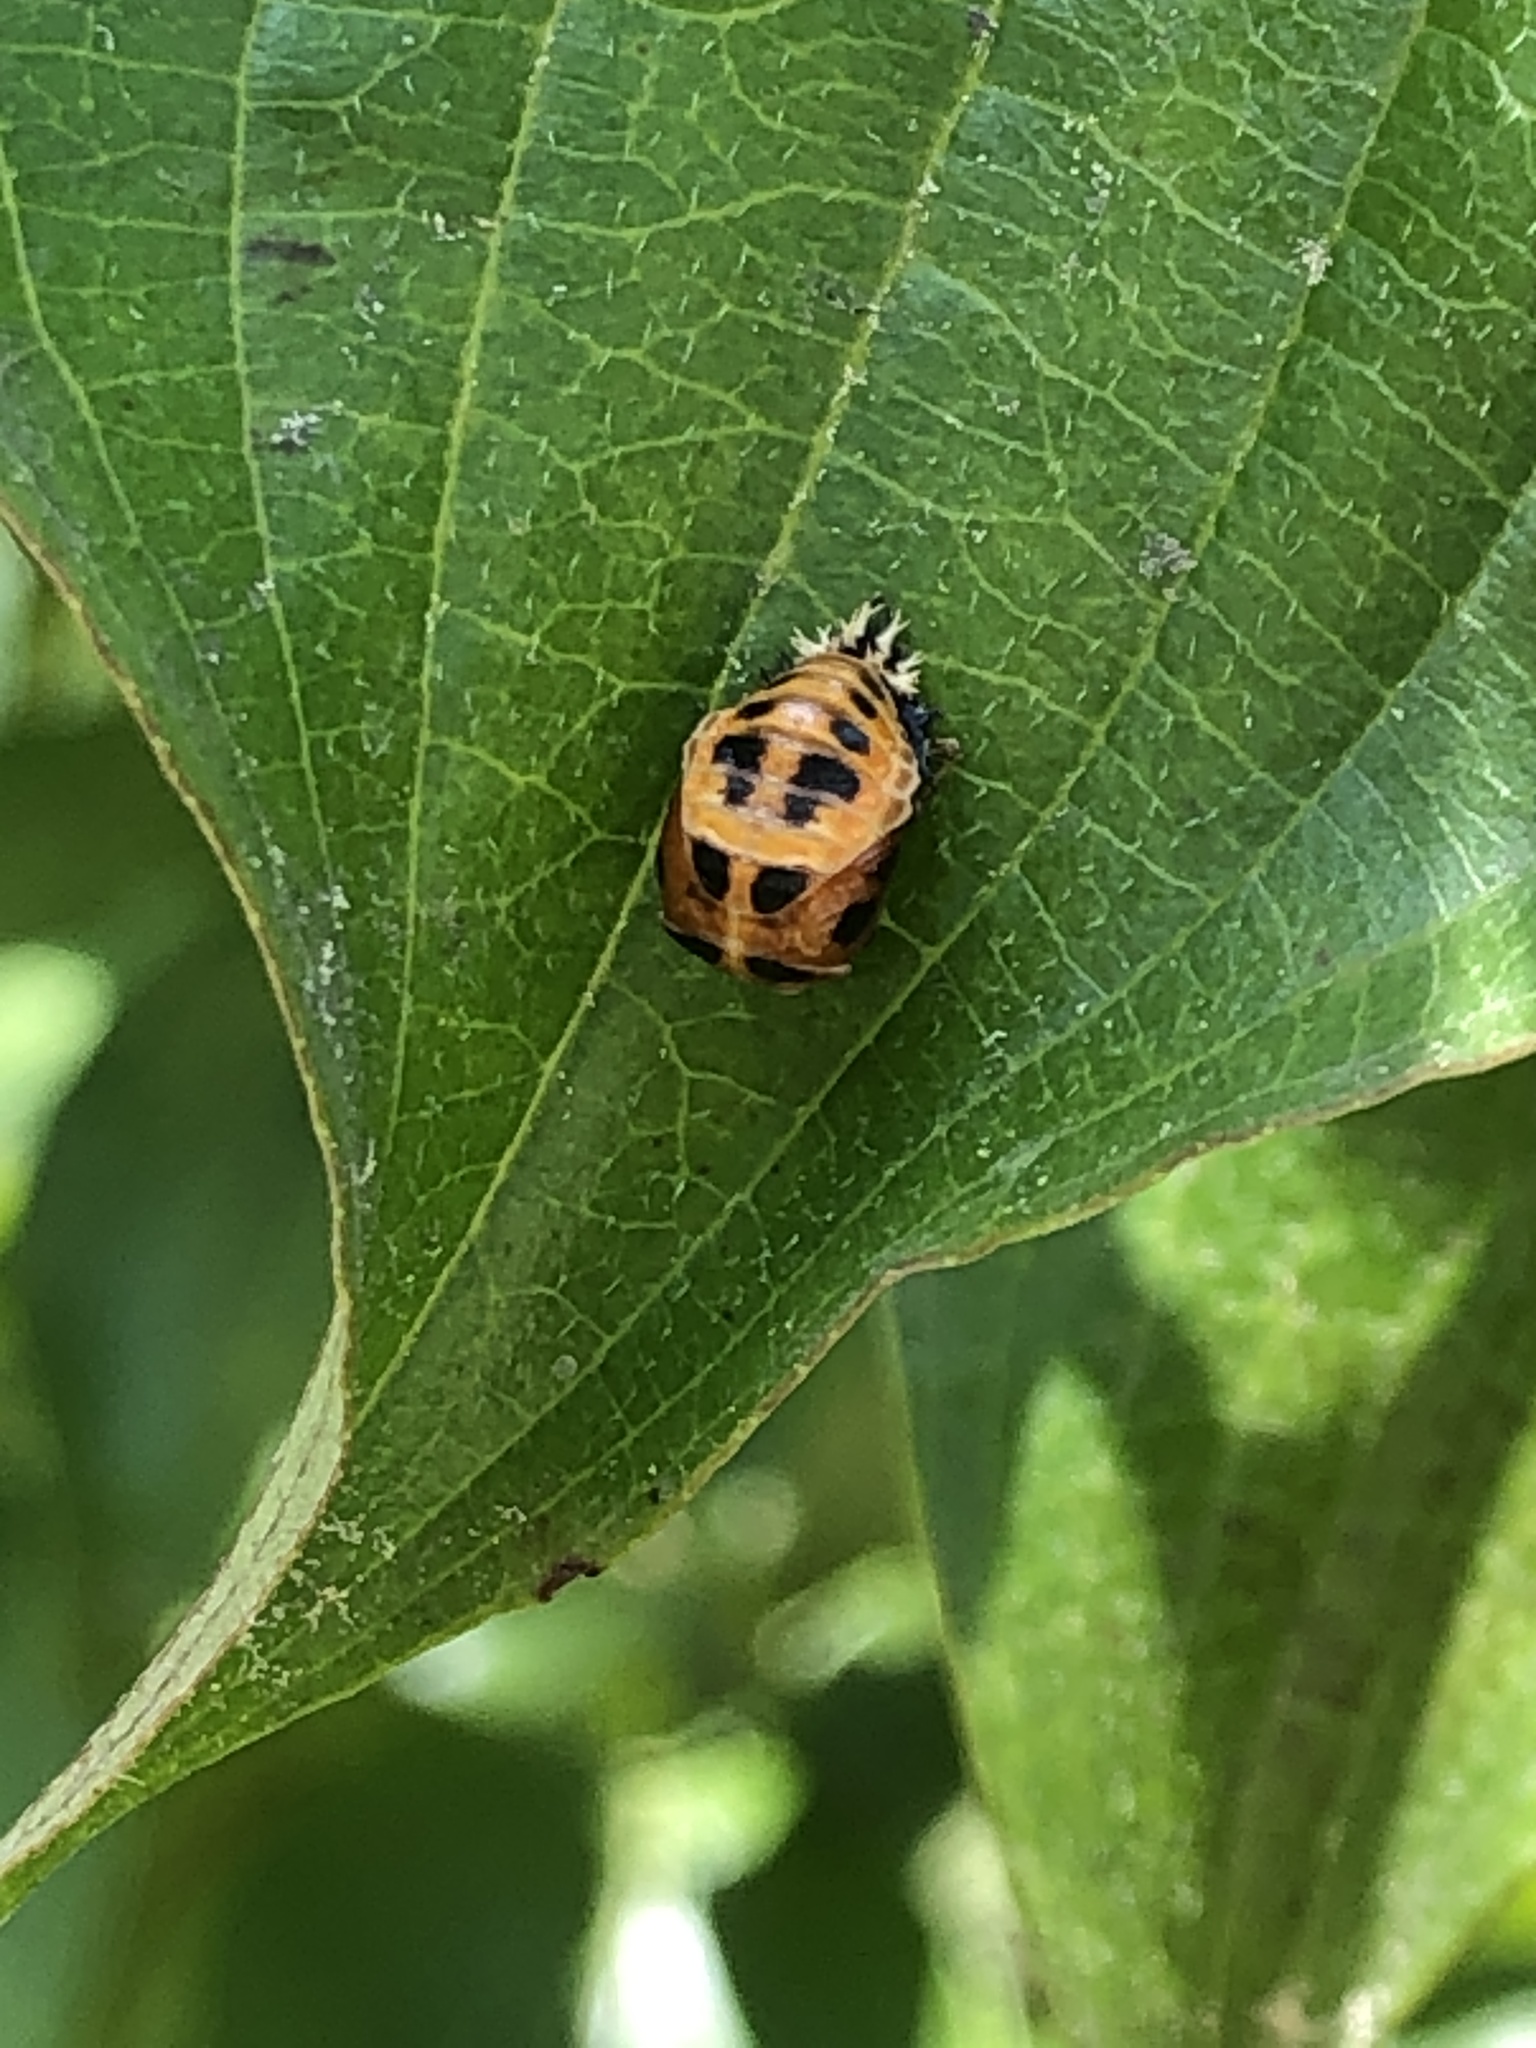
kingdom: Animalia
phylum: Arthropoda
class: Insecta
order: Coleoptera
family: Coccinellidae
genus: Harmonia
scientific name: Harmonia axyridis
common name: Harlequin ladybird
